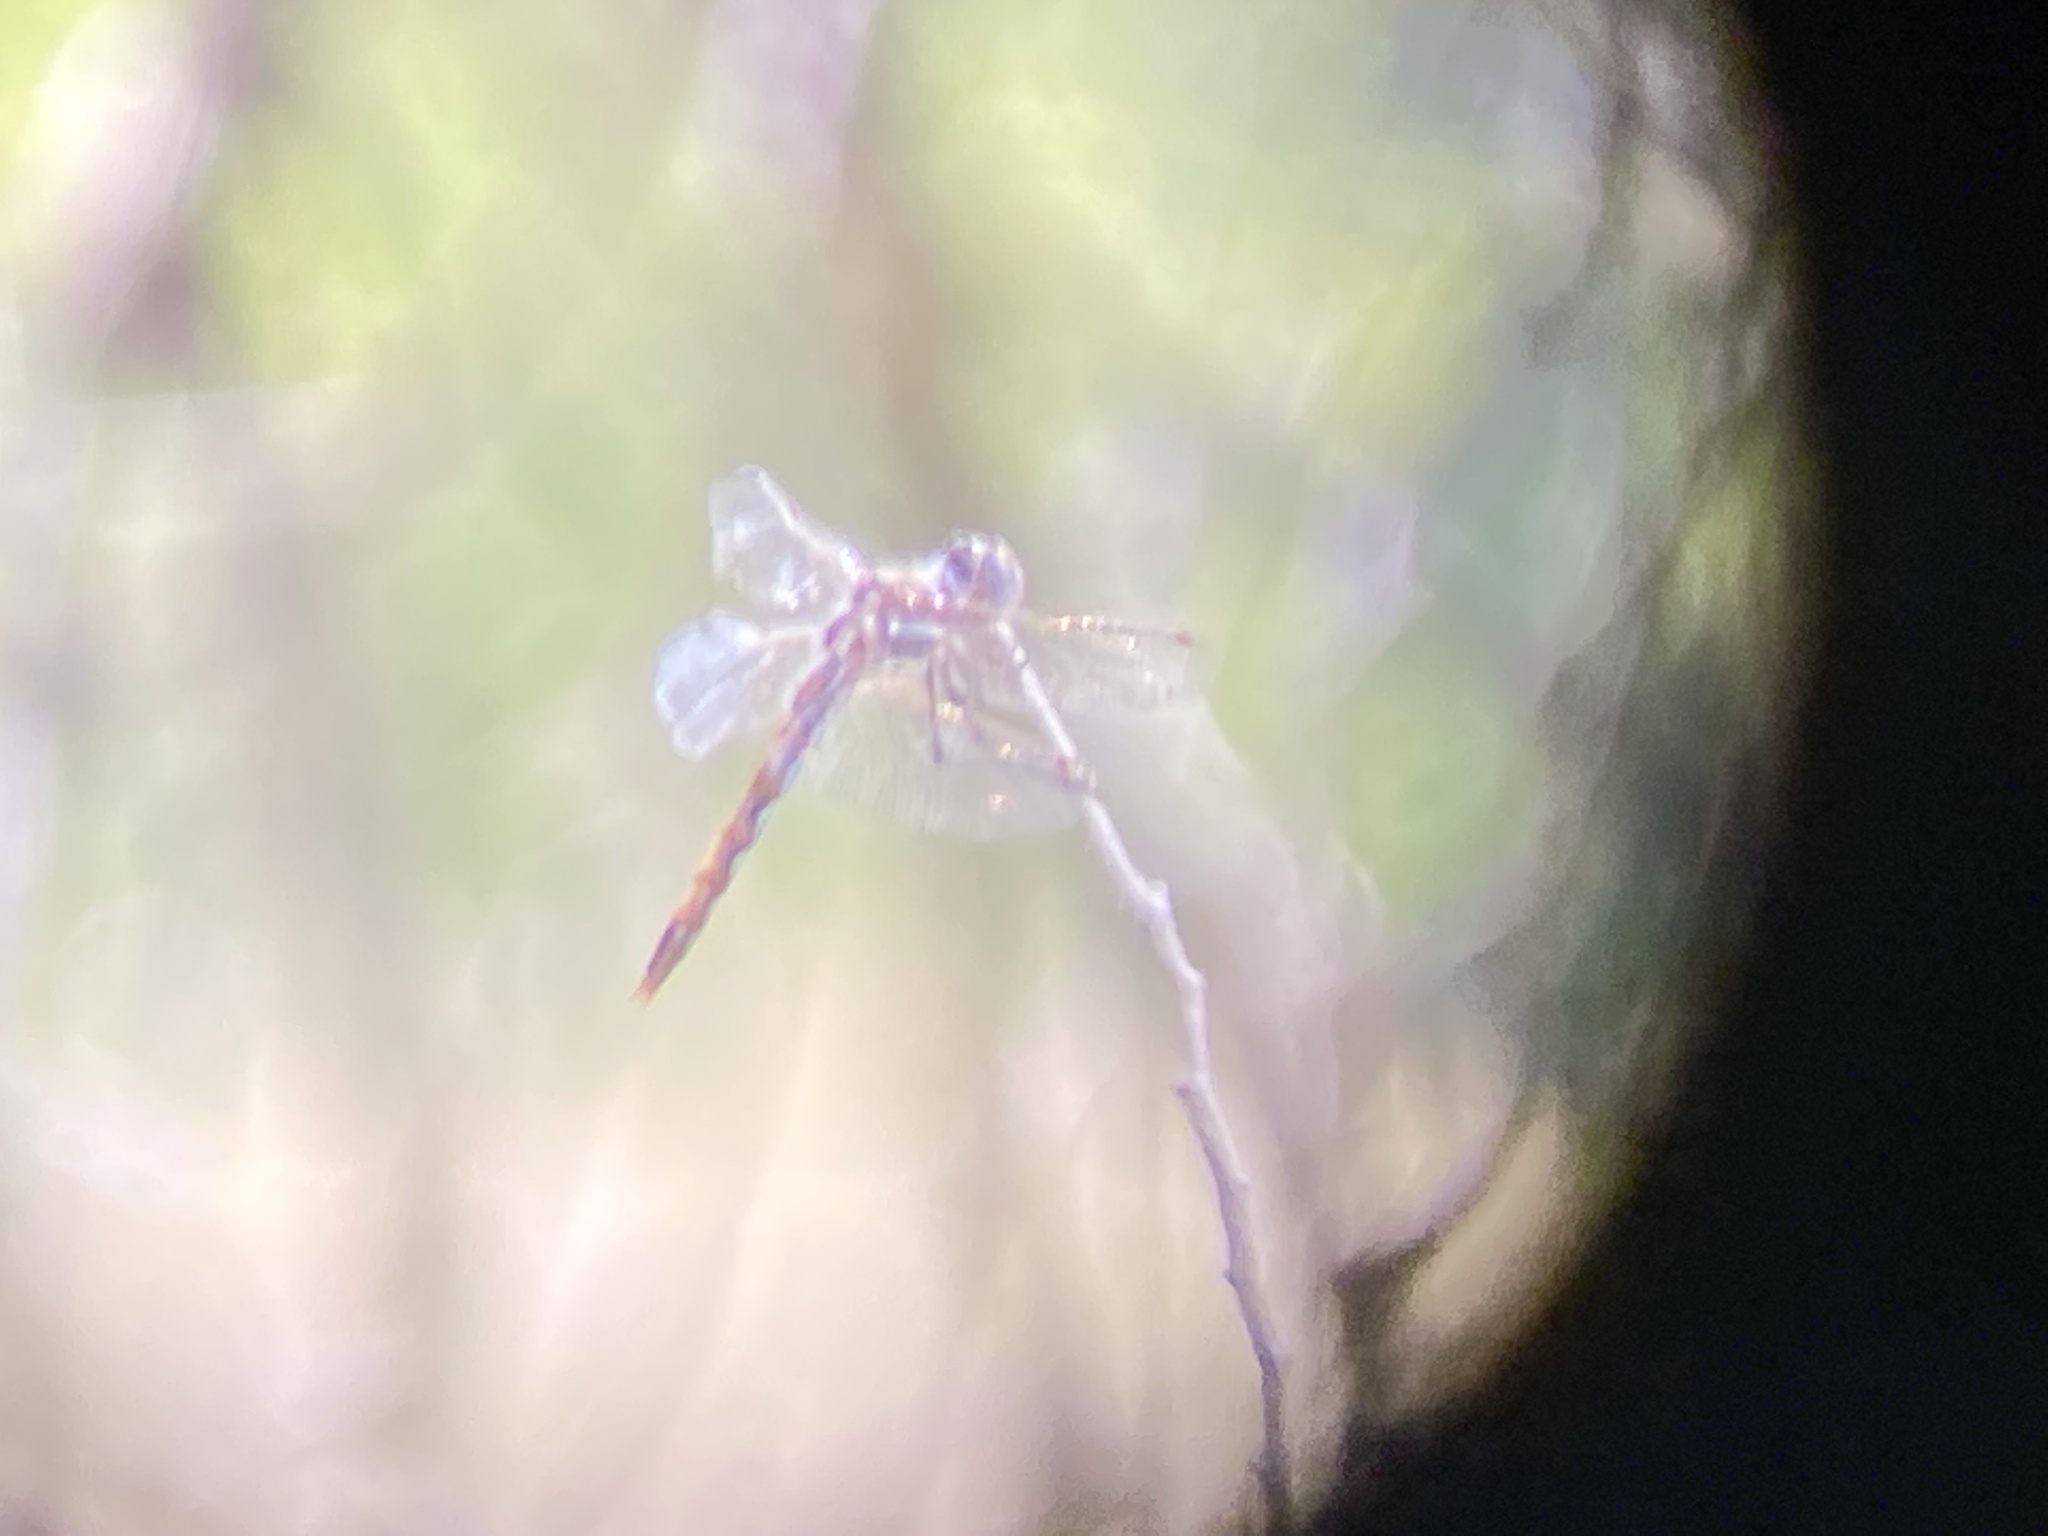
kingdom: Animalia
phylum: Arthropoda
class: Insecta
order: Odonata
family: Libellulidae
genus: Sympetrum
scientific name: Sympetrum corruptum
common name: Variegated meadowhawk
